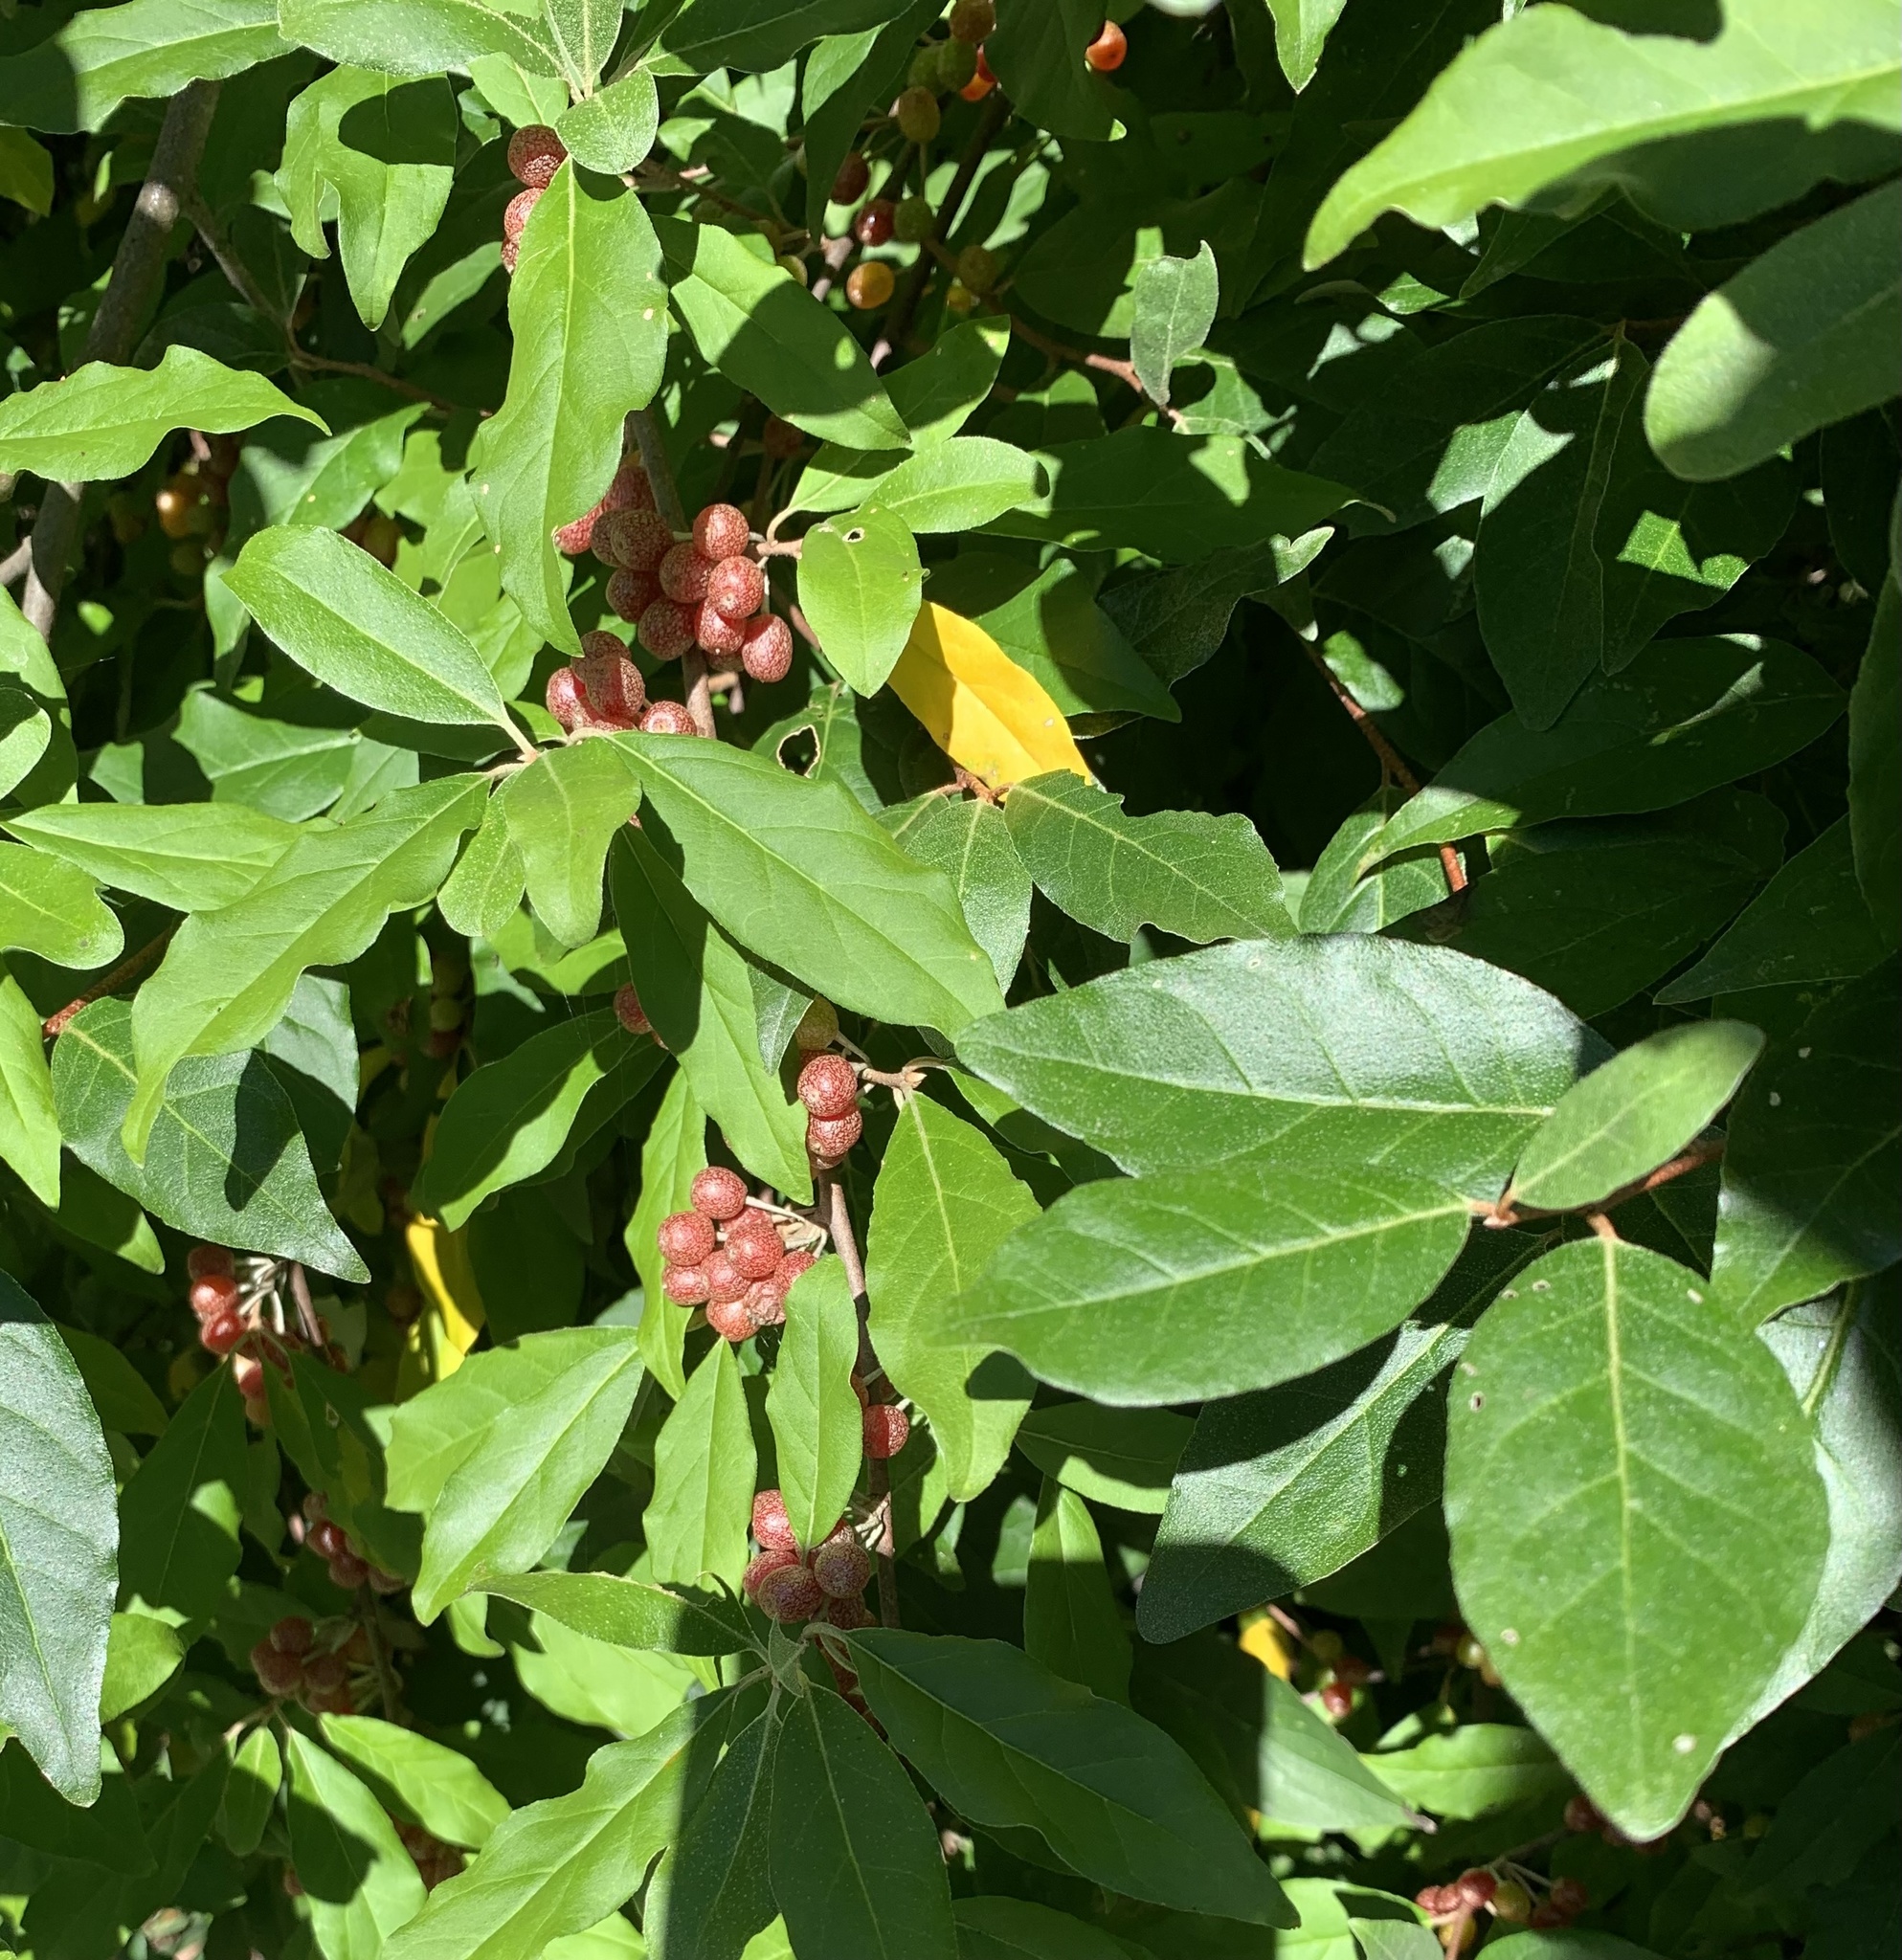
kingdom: Plantae
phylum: Tracheophyta
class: Magnoliopsida
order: Rosales
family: Elaeagnaceae
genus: Elaeagnus
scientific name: Elaeagnus umbellata
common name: Autumn olive
